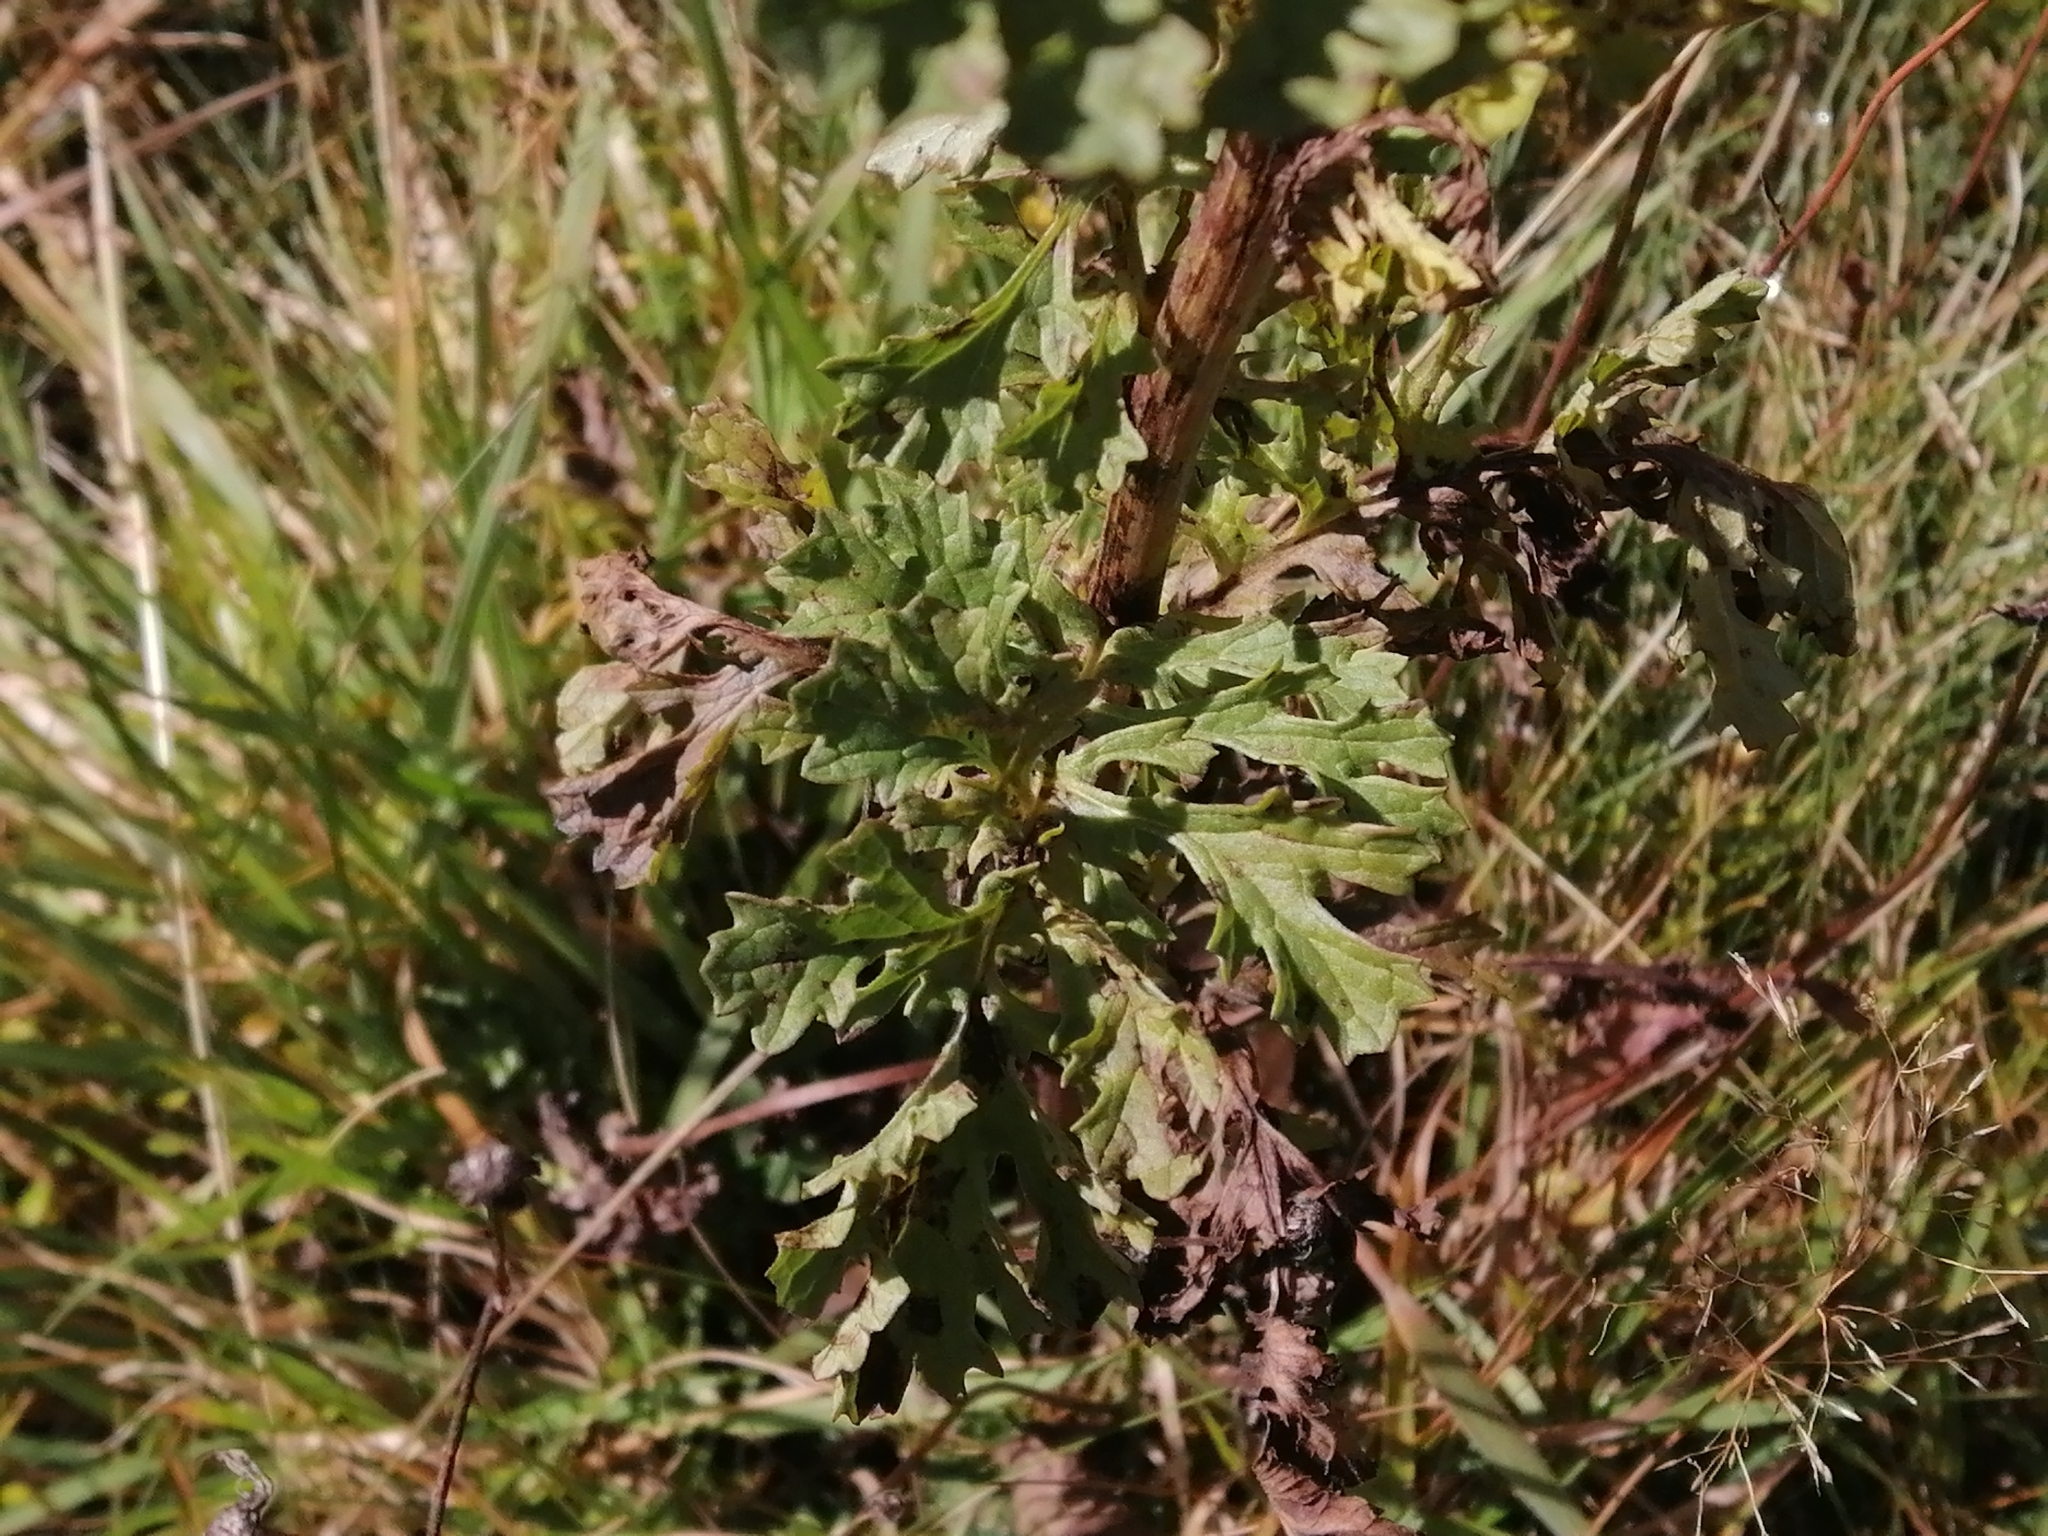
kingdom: Plantae
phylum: Tracheophyta
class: Magnoliopsida
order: Asterales
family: Asteraceae
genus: Jacobaea
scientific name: Jacobaea vulgaris
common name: Stinking willie
